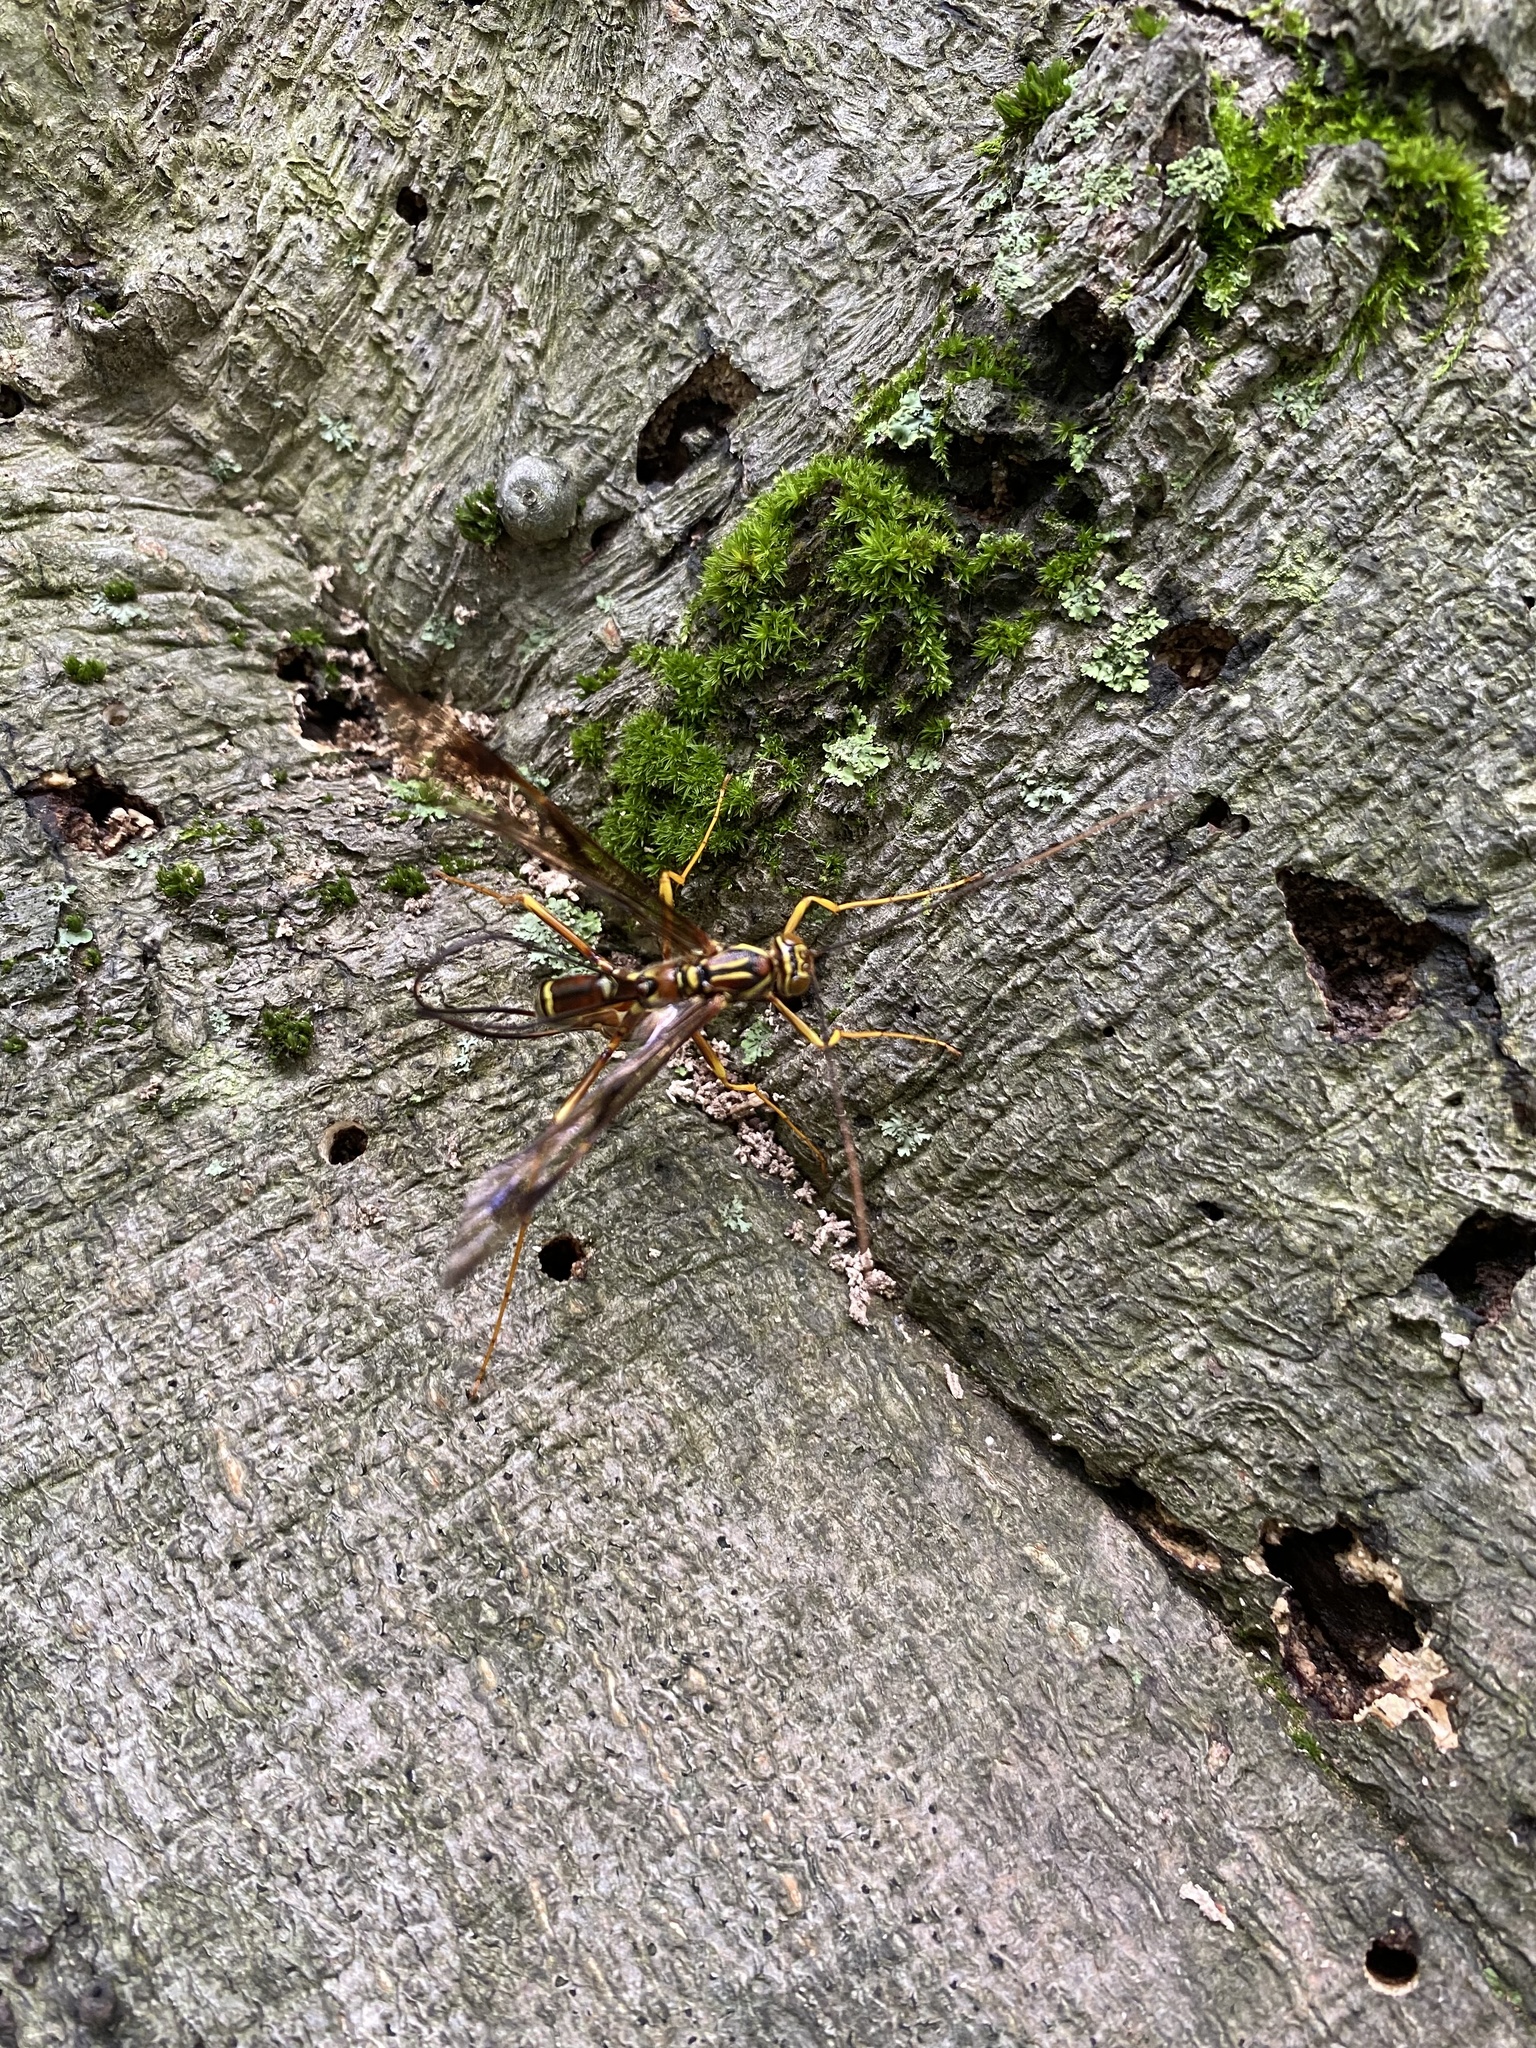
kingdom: Animalia
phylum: Arthropoda
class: Insecta
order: Hymenoptera
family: Ichneumonidae
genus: Megarhyssa
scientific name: Megarhyssa macrura
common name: Long-tailed giant ichneumonid wasp
